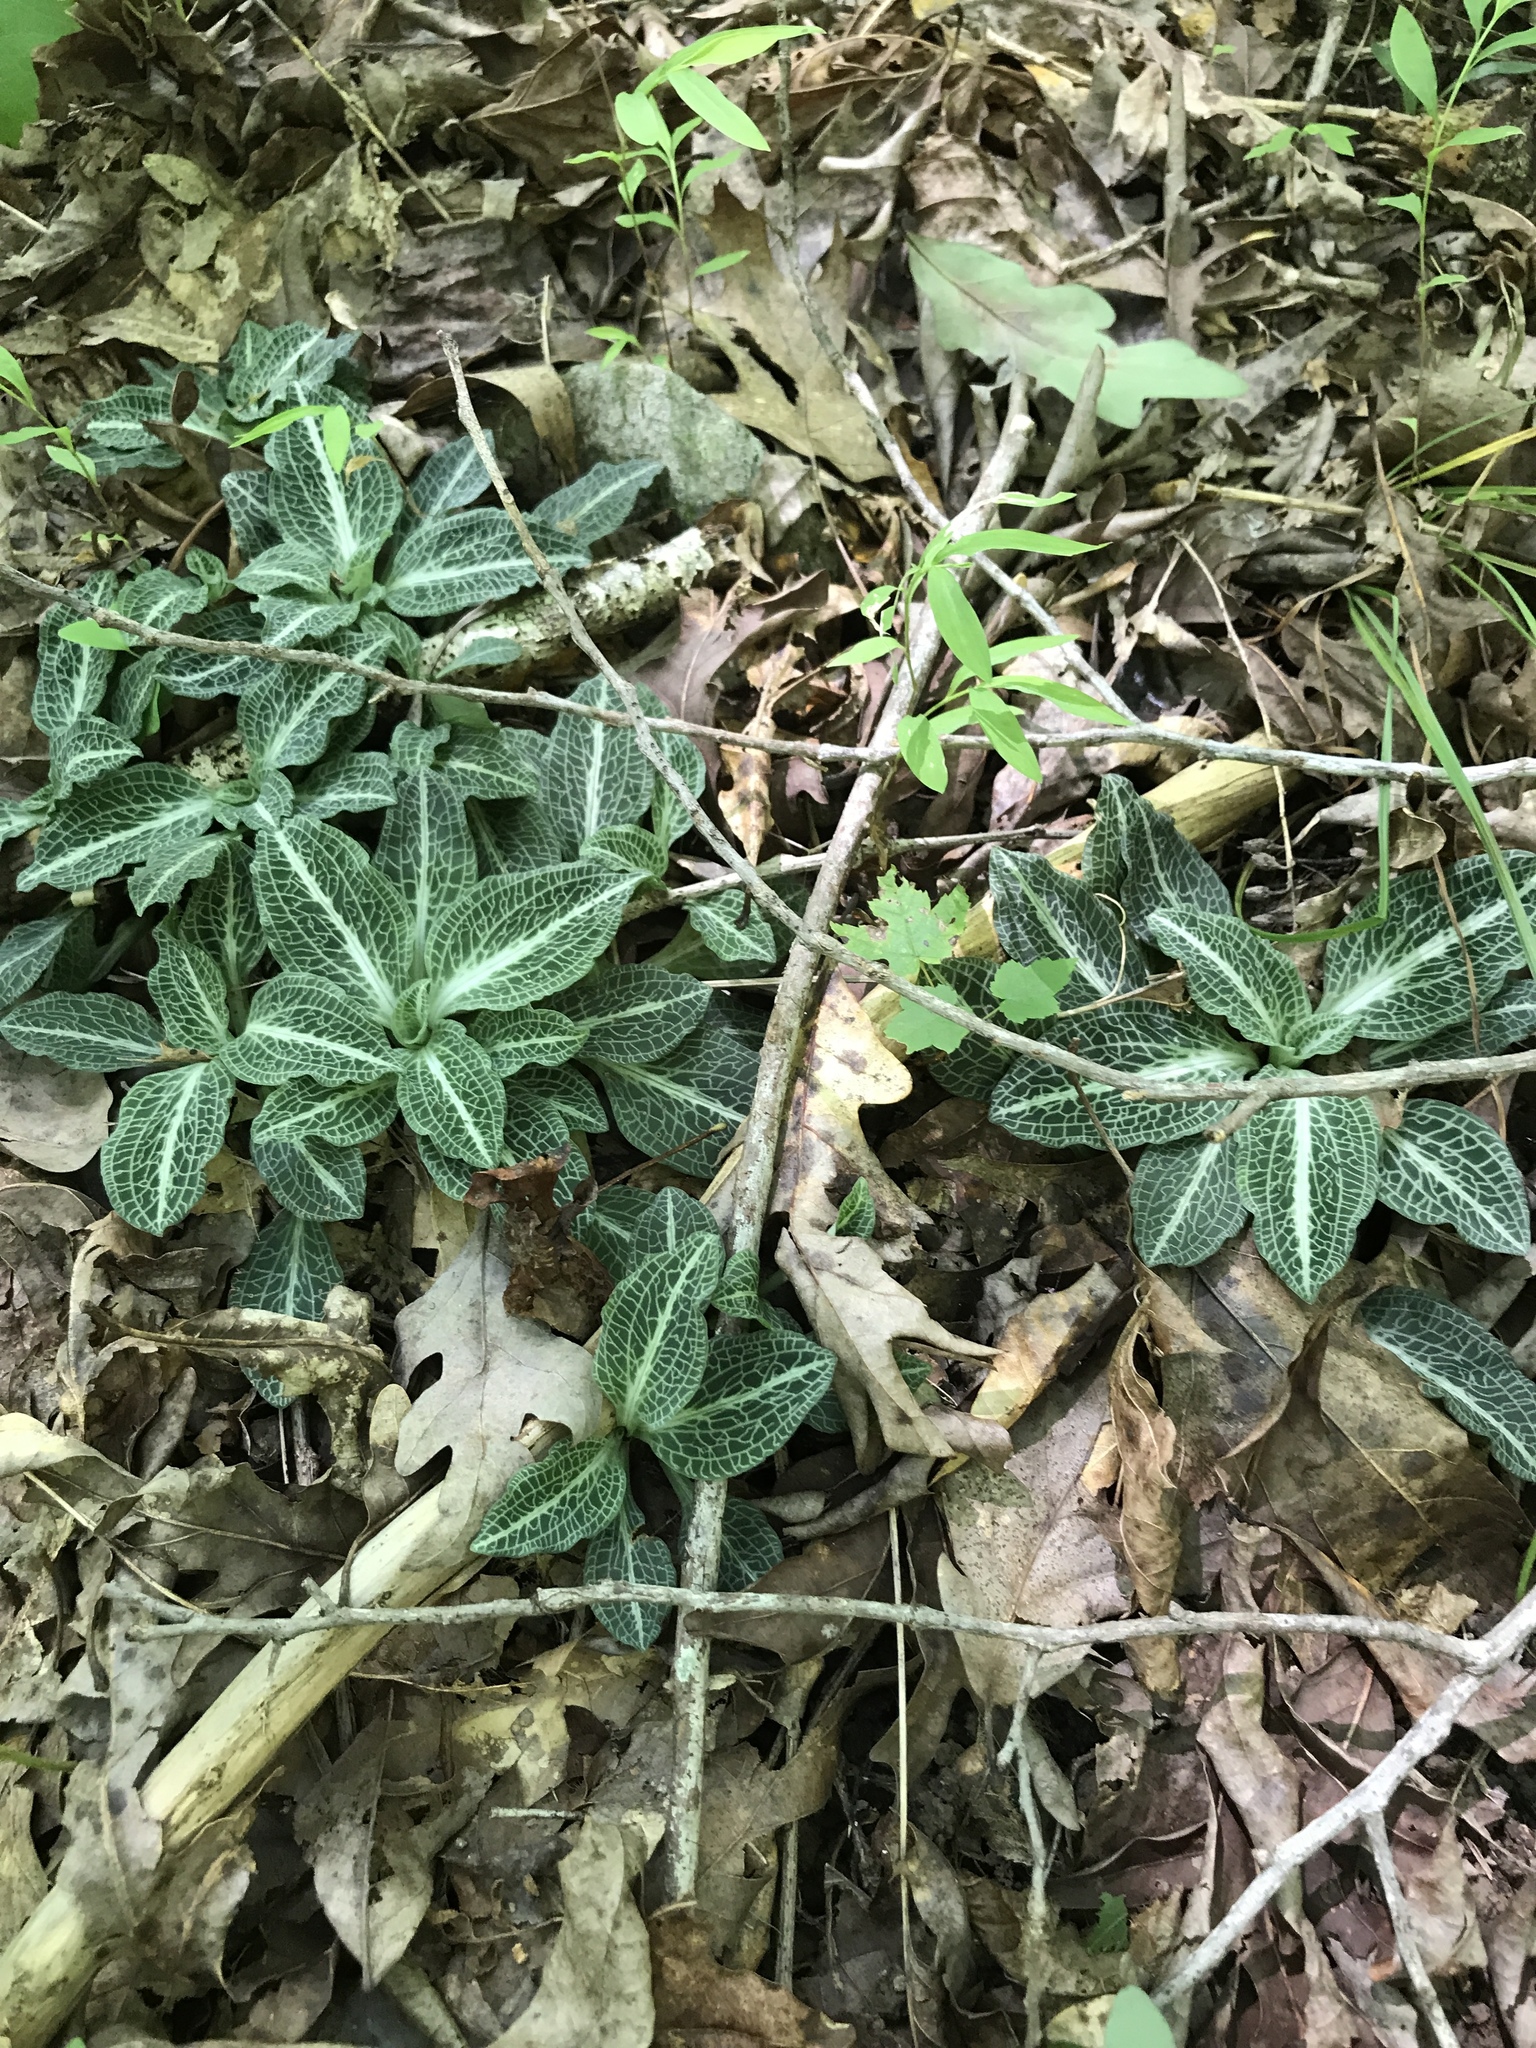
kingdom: Plantae
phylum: Tracheophyta
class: Liliopsida
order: Asparagales
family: Orchidaceae
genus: Goodyera
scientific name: Goodyera pubescens
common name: Downy rattlesnake-plantain
